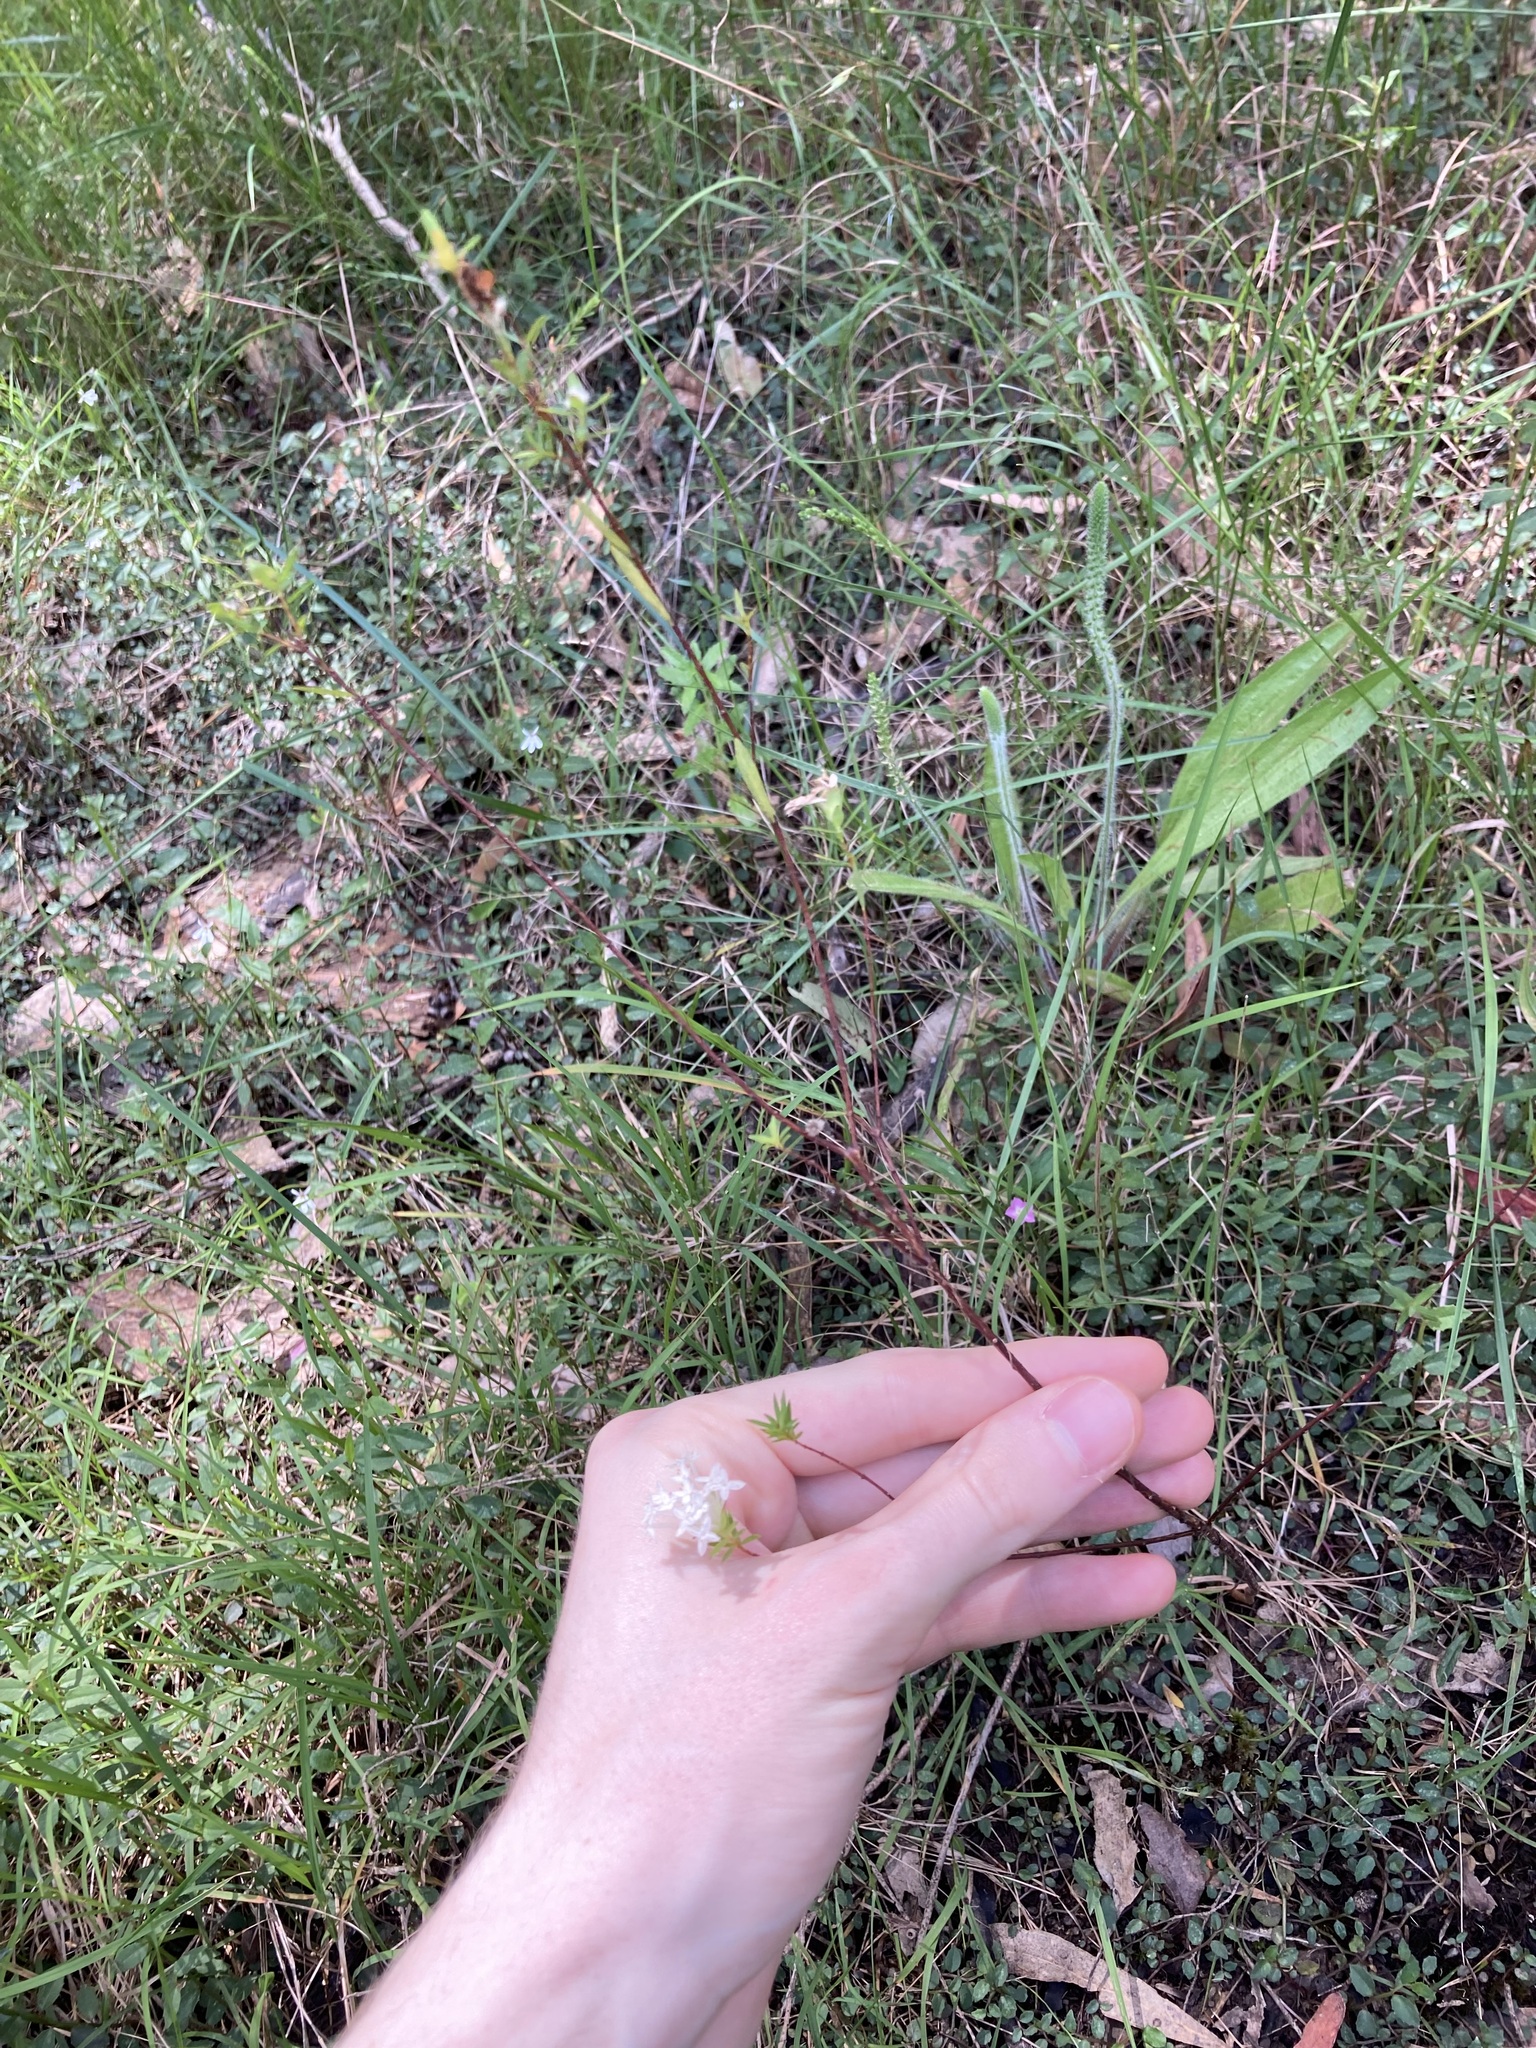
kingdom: Plantae
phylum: Tracheophyta
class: Magnoliopsida
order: Malvales
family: Thymelaeaceae
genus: Pimelea
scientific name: Pimelea linifolia
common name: Queen-of-the-bush
